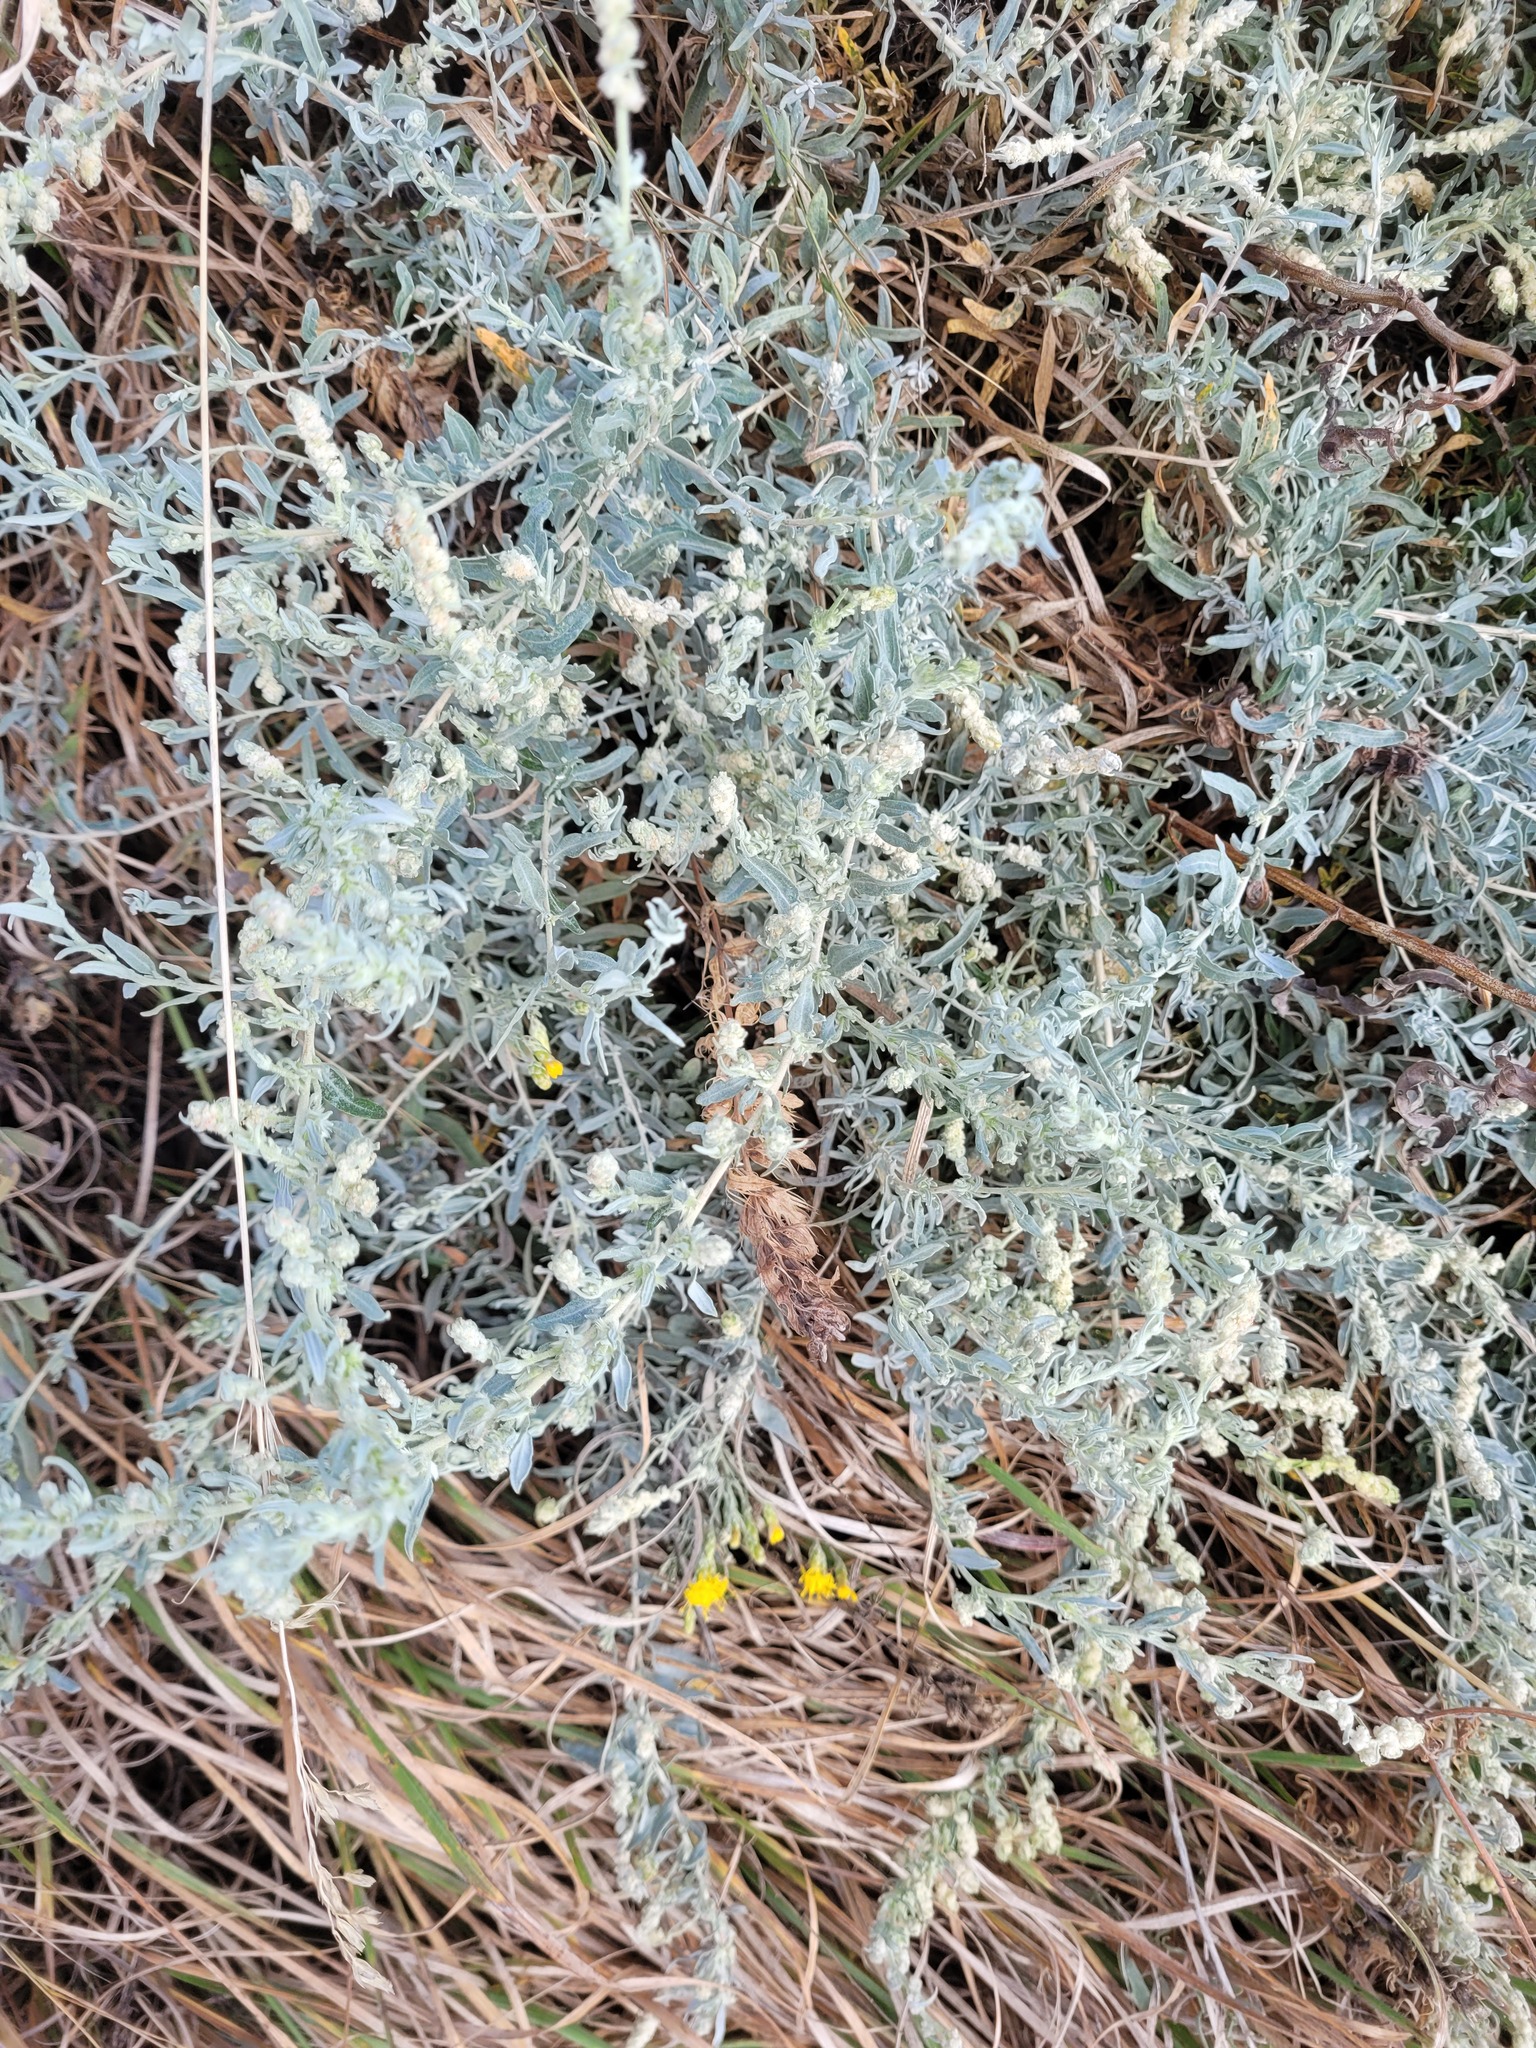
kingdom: Plantae
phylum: Tracheophyta
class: Magnoliopsida
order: Caryophyllales
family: Amaranthaceae
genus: Krascheninnikovia
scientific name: Krascheninnikovia ceratoides
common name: Pamirian winterfat
